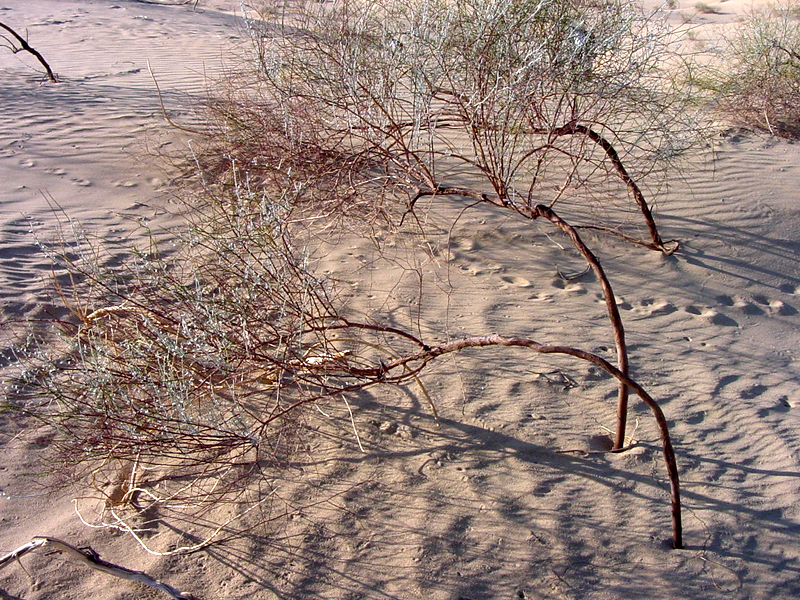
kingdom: Plantae
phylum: Tracheophyta
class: Magnoliopsida
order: Caryophyllales
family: Polygonaceae
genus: Eriogonum
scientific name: Eriogonum deserticola
